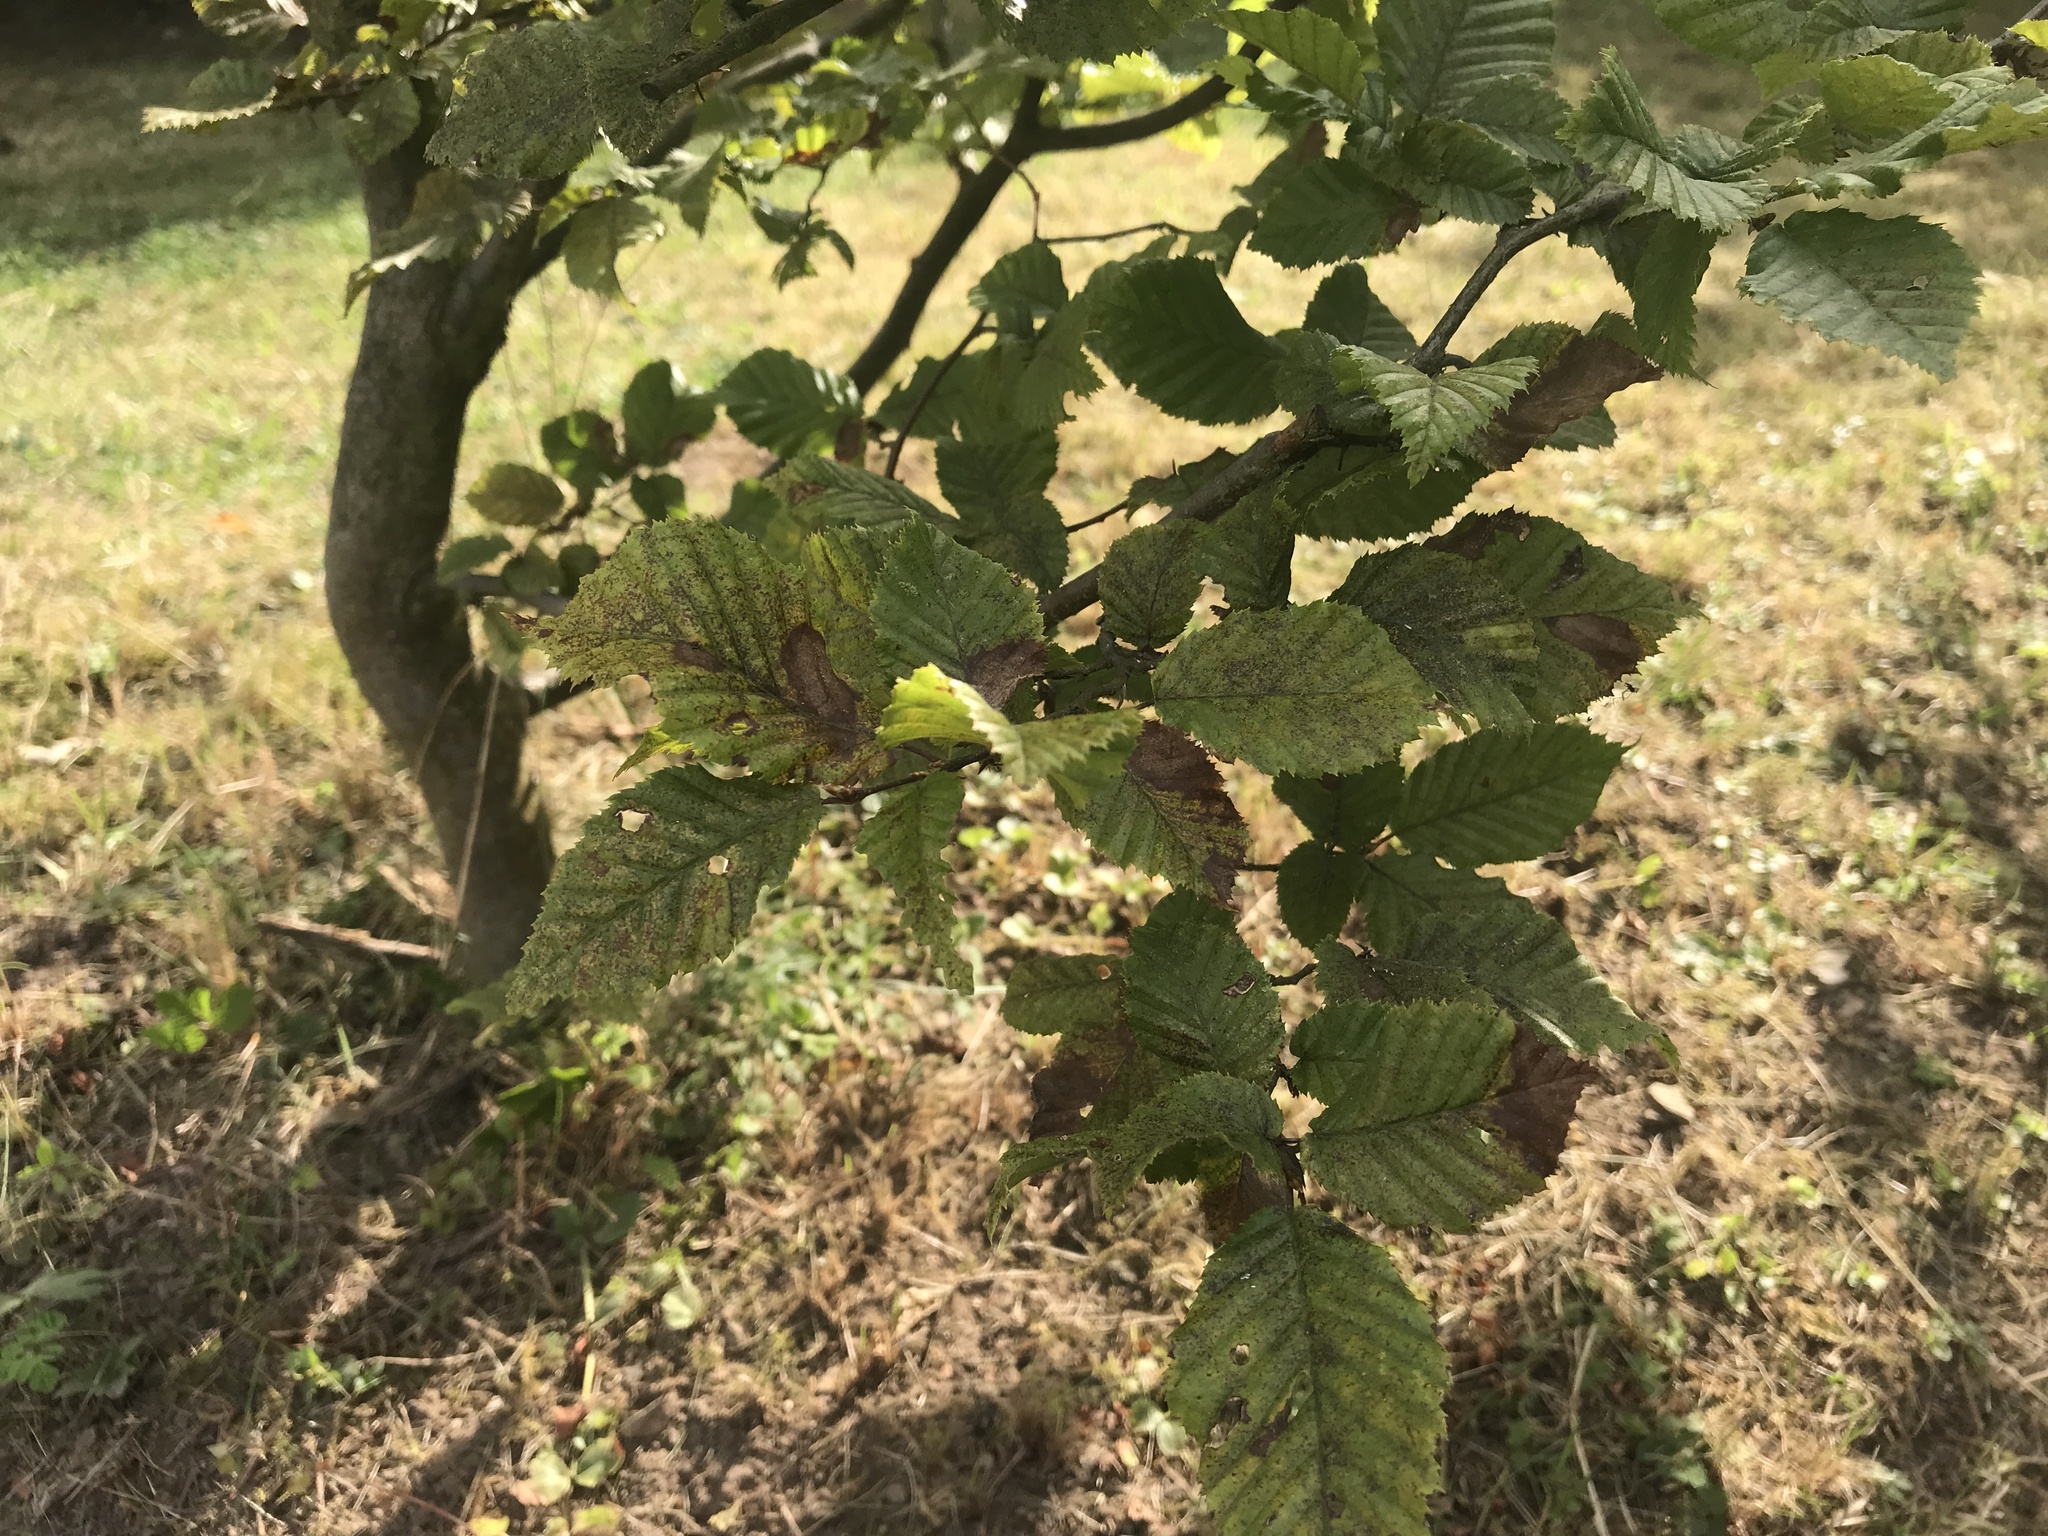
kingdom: Plantae
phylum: Tracheophyta
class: Magnoliopsida
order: Fagales
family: Betulaceae
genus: Carpinus
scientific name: Carpinus betulus
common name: Hornbeam
